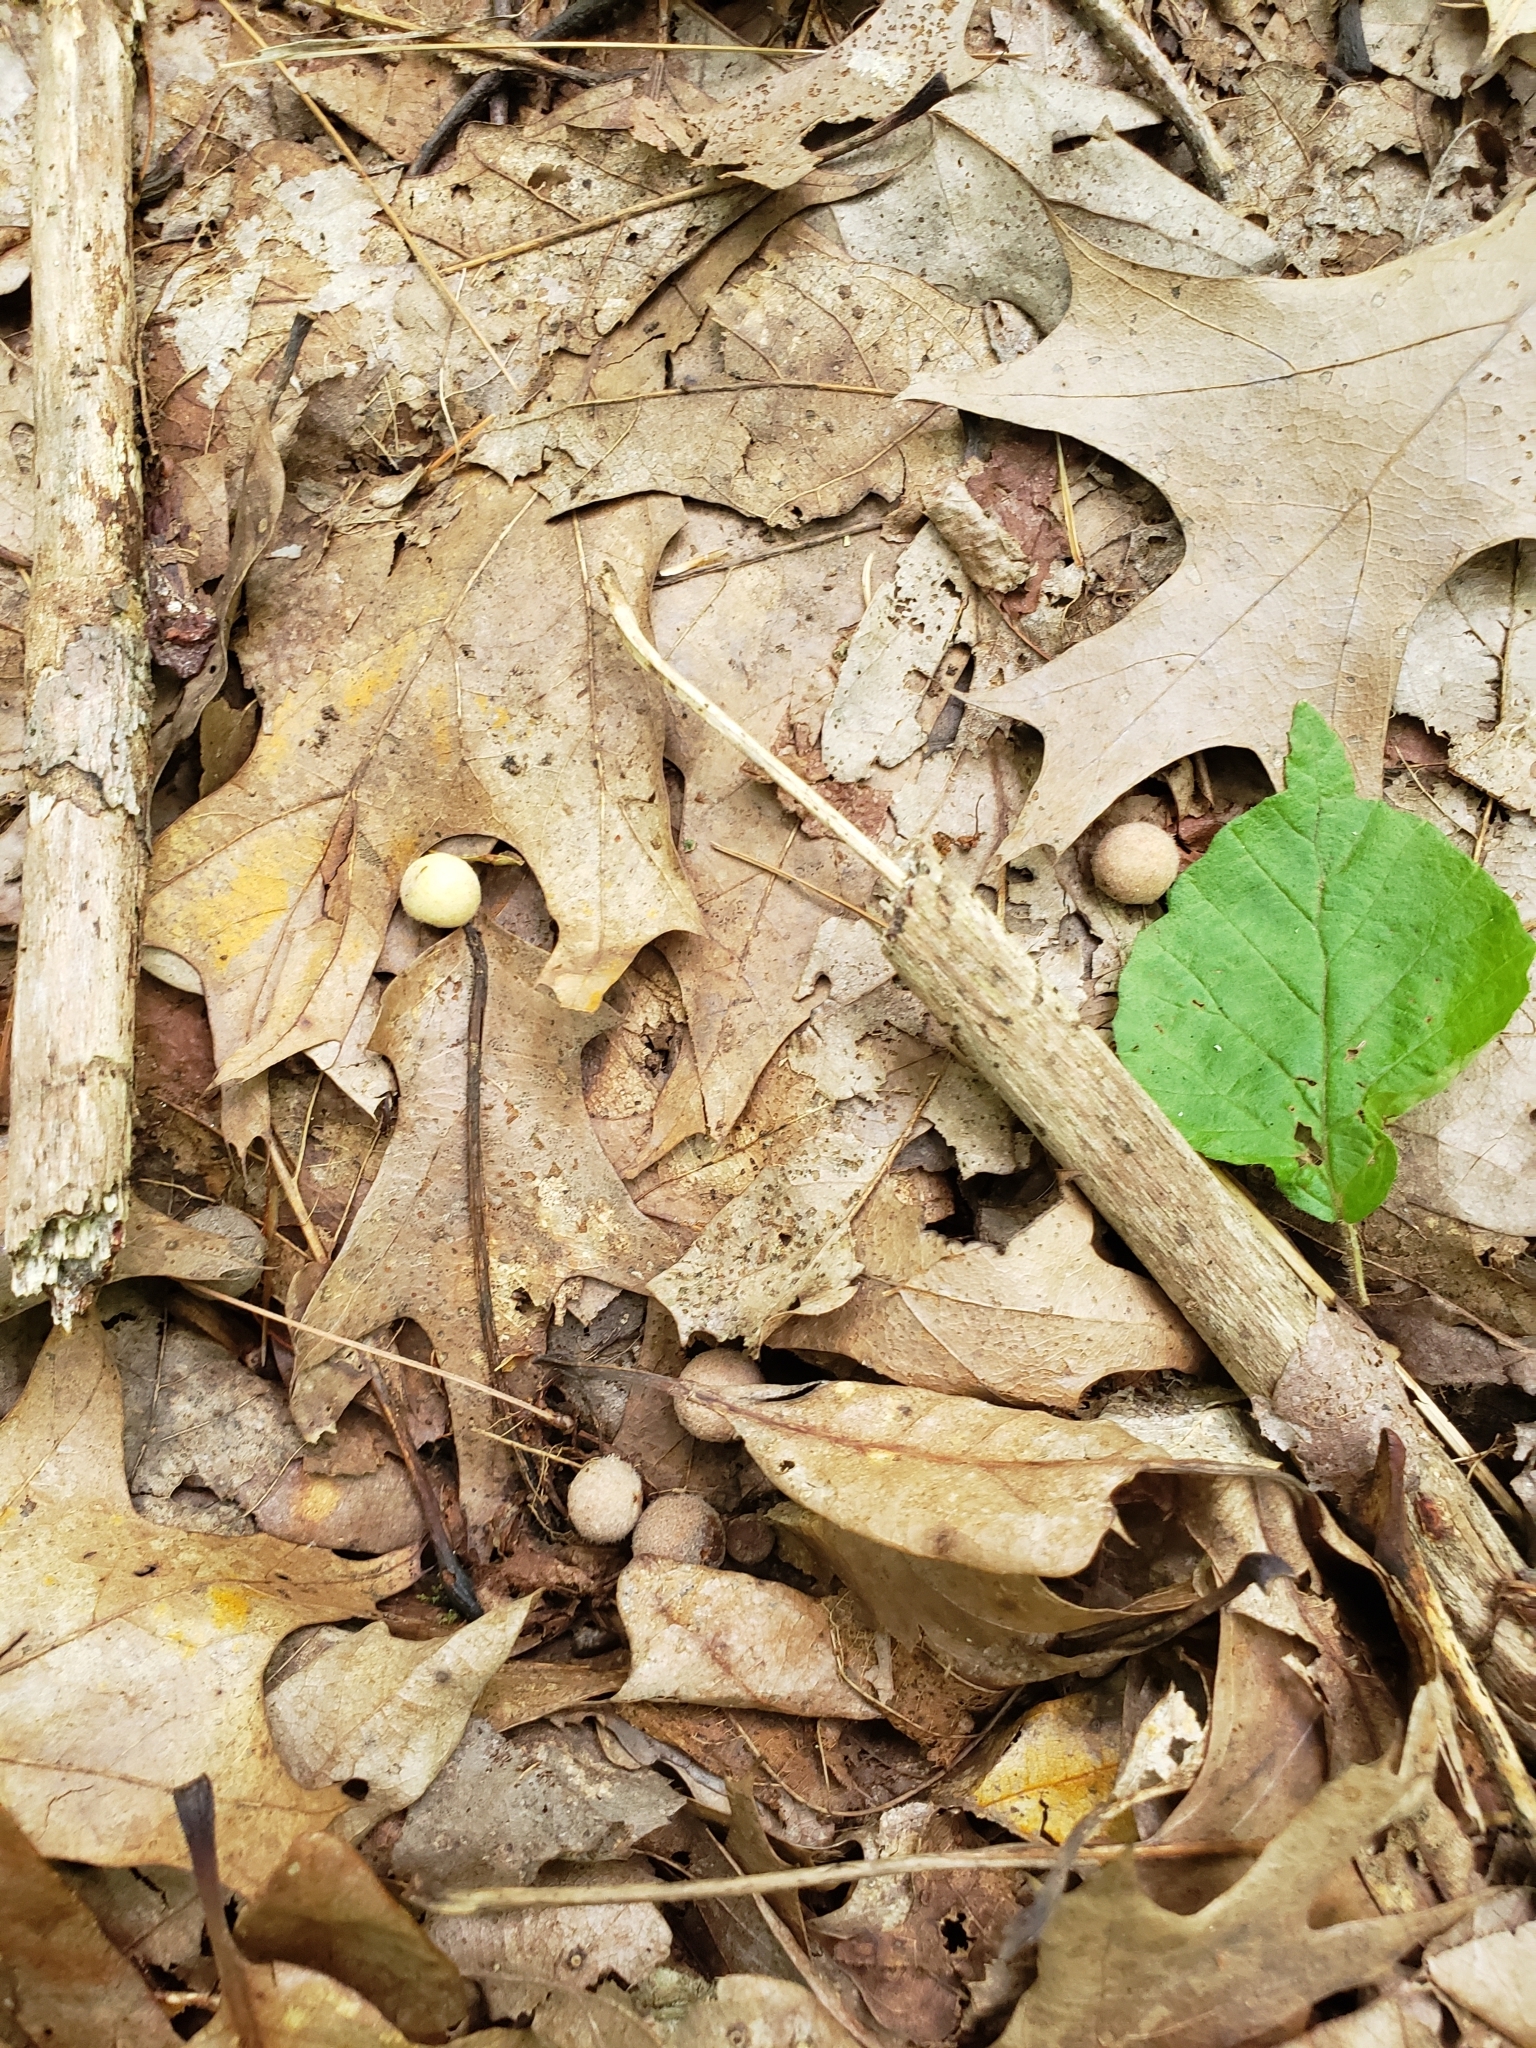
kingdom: Animalia
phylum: Arthropoda
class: Insecta
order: Hymenoptera
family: Cynipidae
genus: Philonix
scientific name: Philonix fulvicollis
